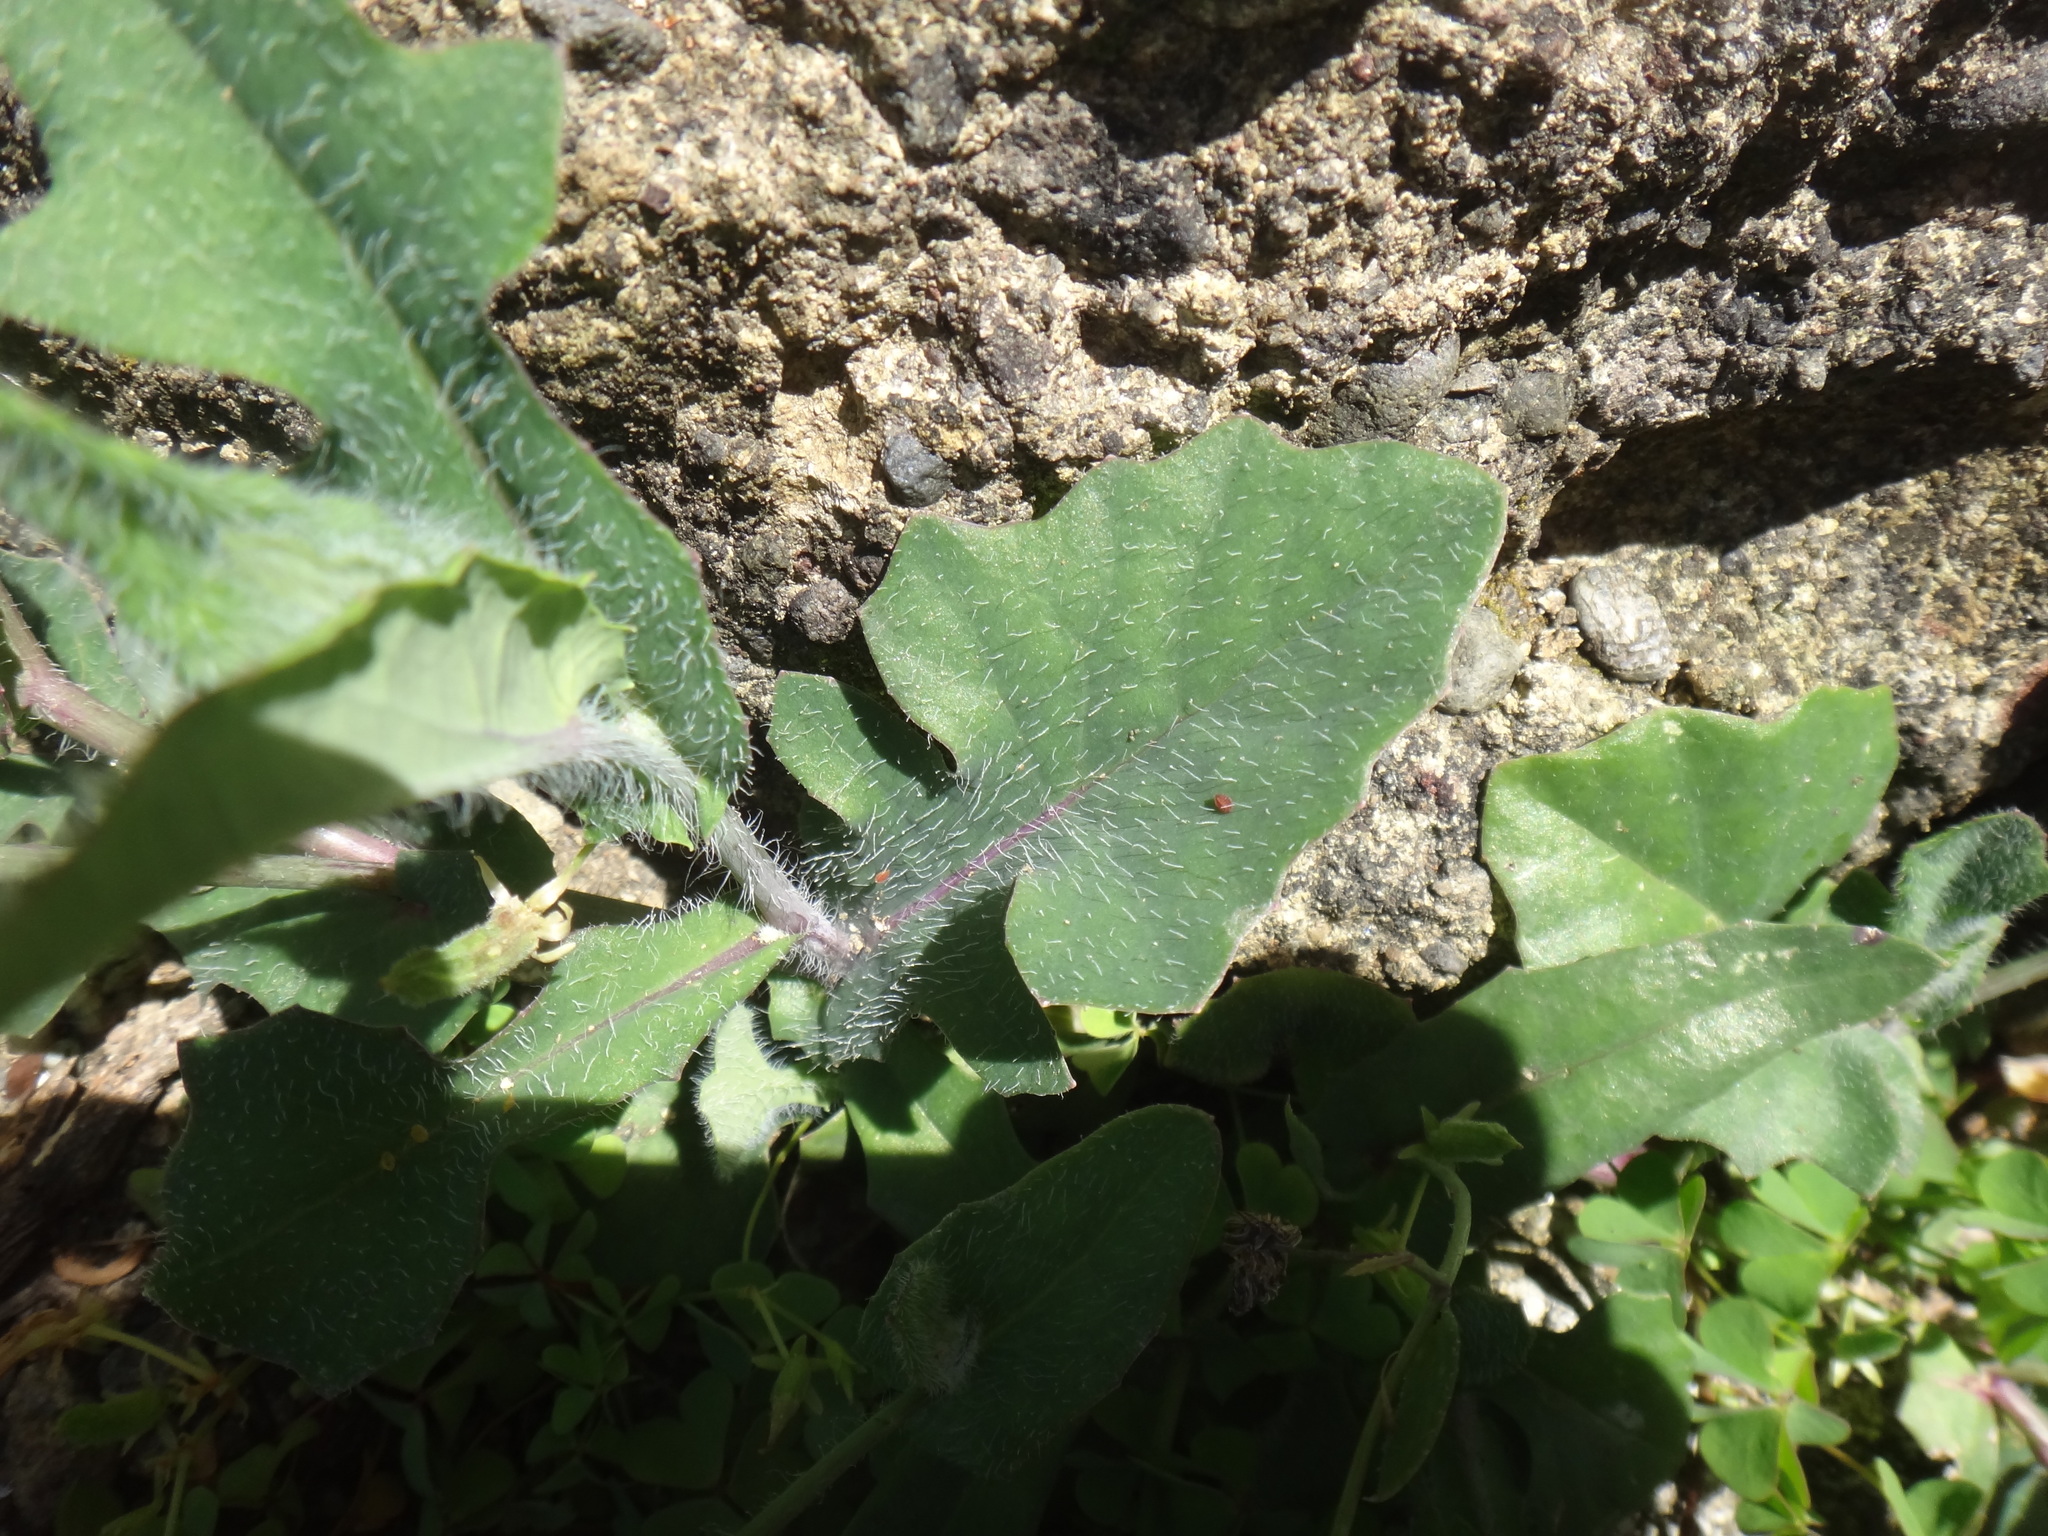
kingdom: Plantae
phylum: Tracheophyta
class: Magnoliopsida
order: Asterales
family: Asteraceae
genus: Emilia
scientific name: Emilia javanica
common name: Tassel-flower
